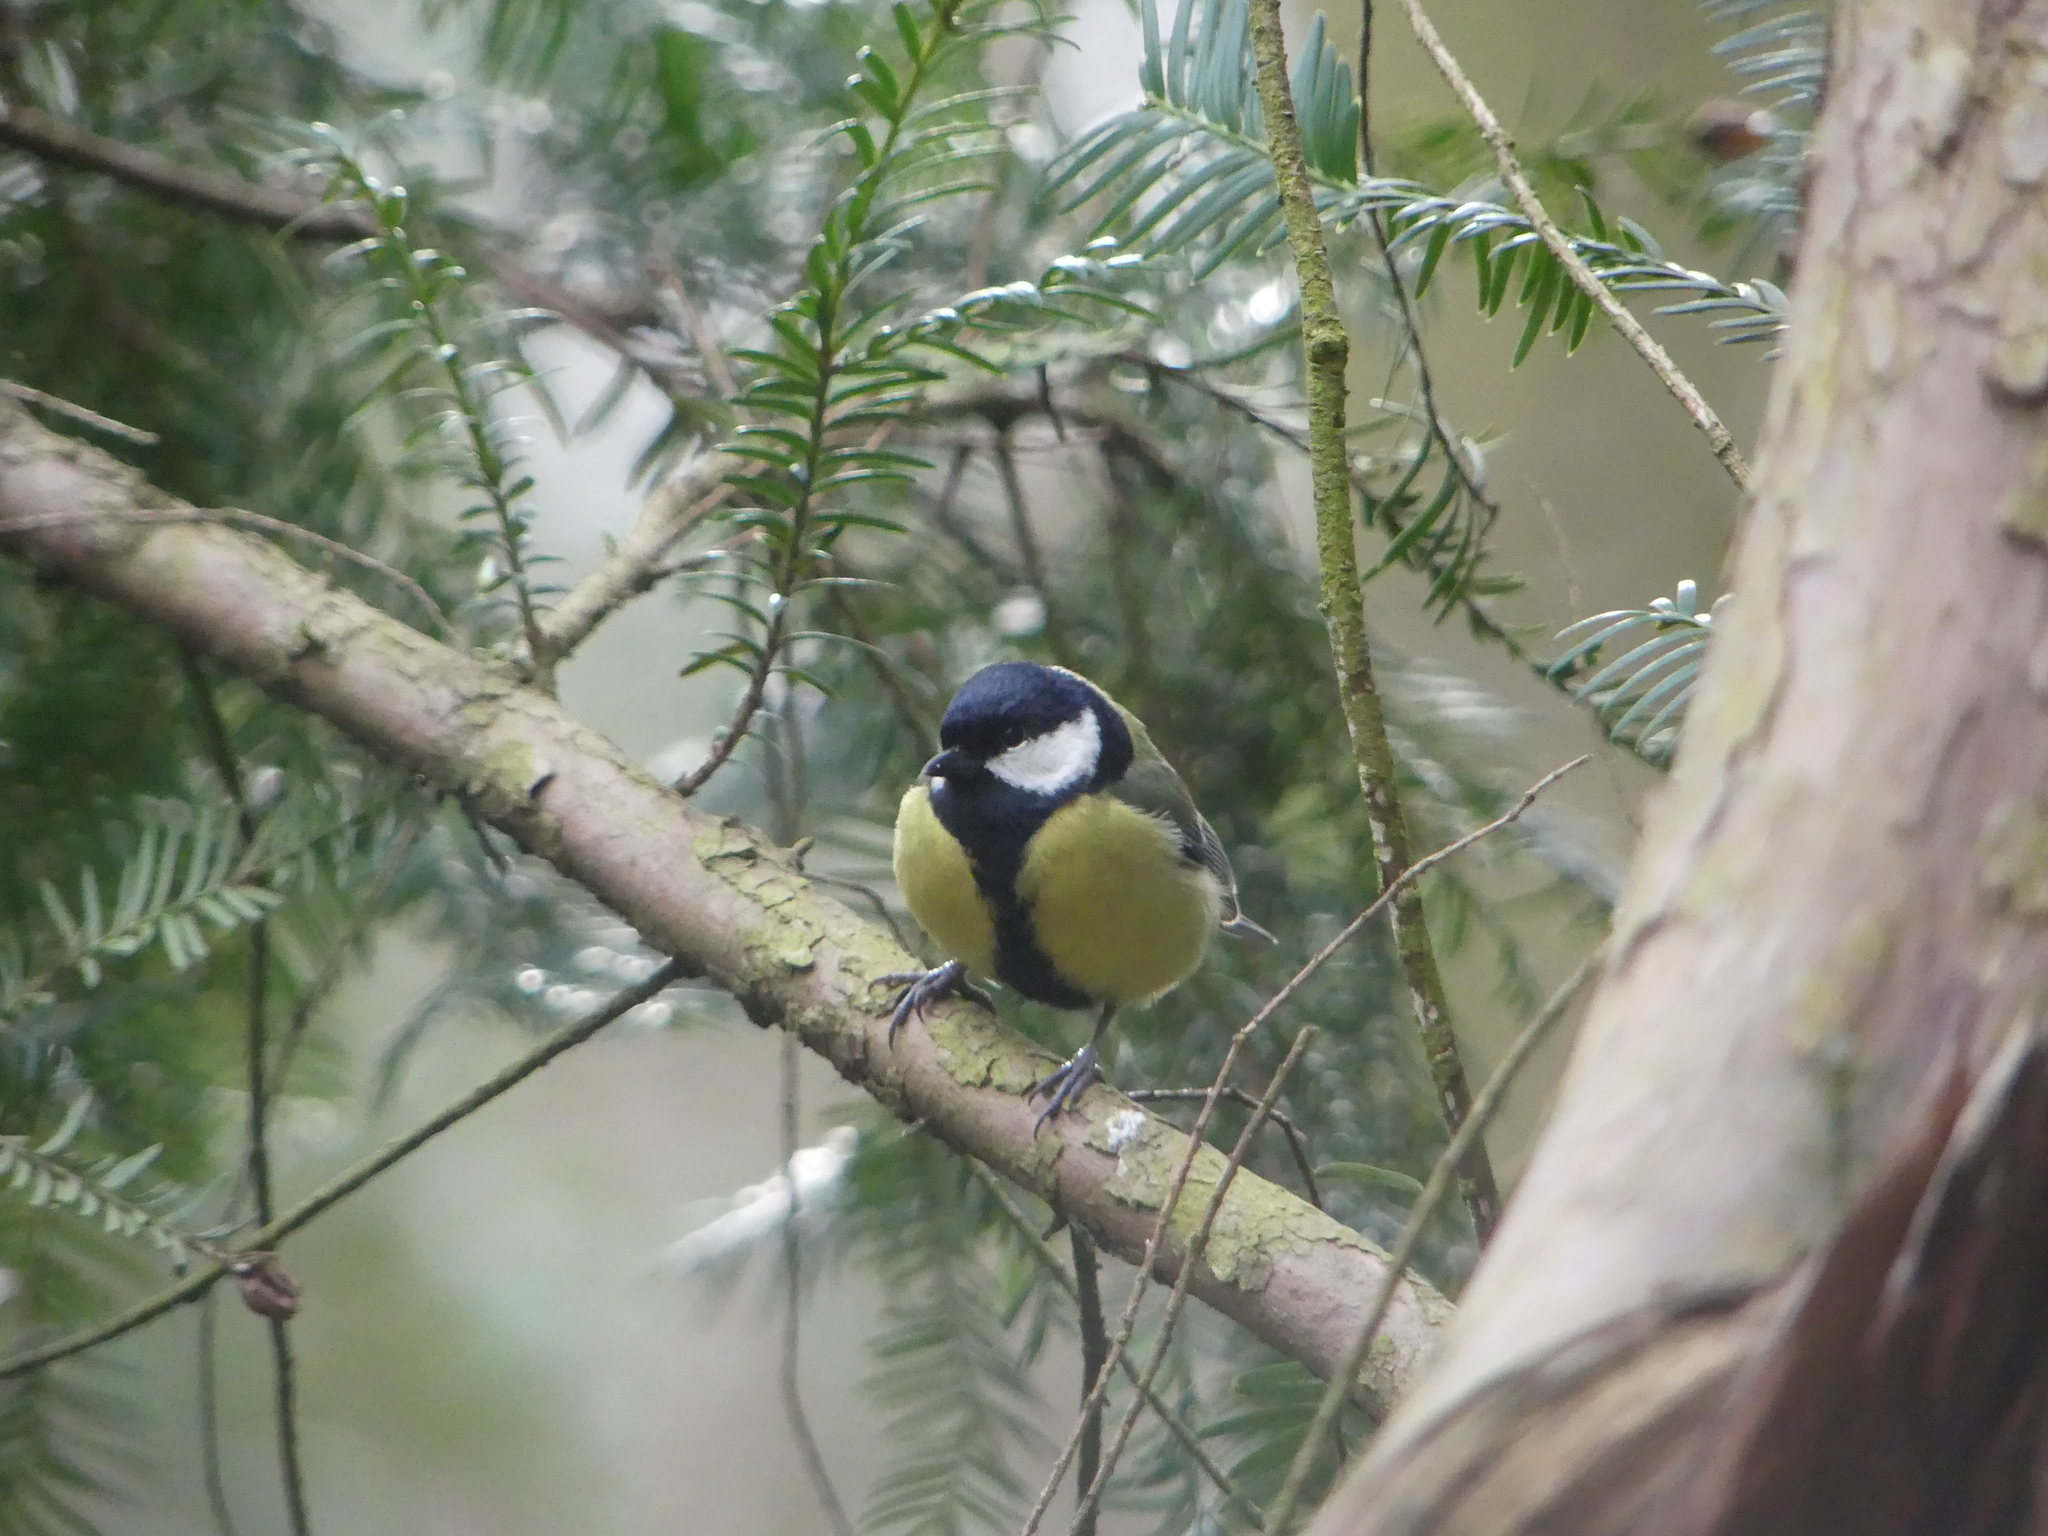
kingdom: Animalia
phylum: Chordata
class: Aves
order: Passeriformes
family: Paridae
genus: Parus
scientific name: Parus major
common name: Great tit
